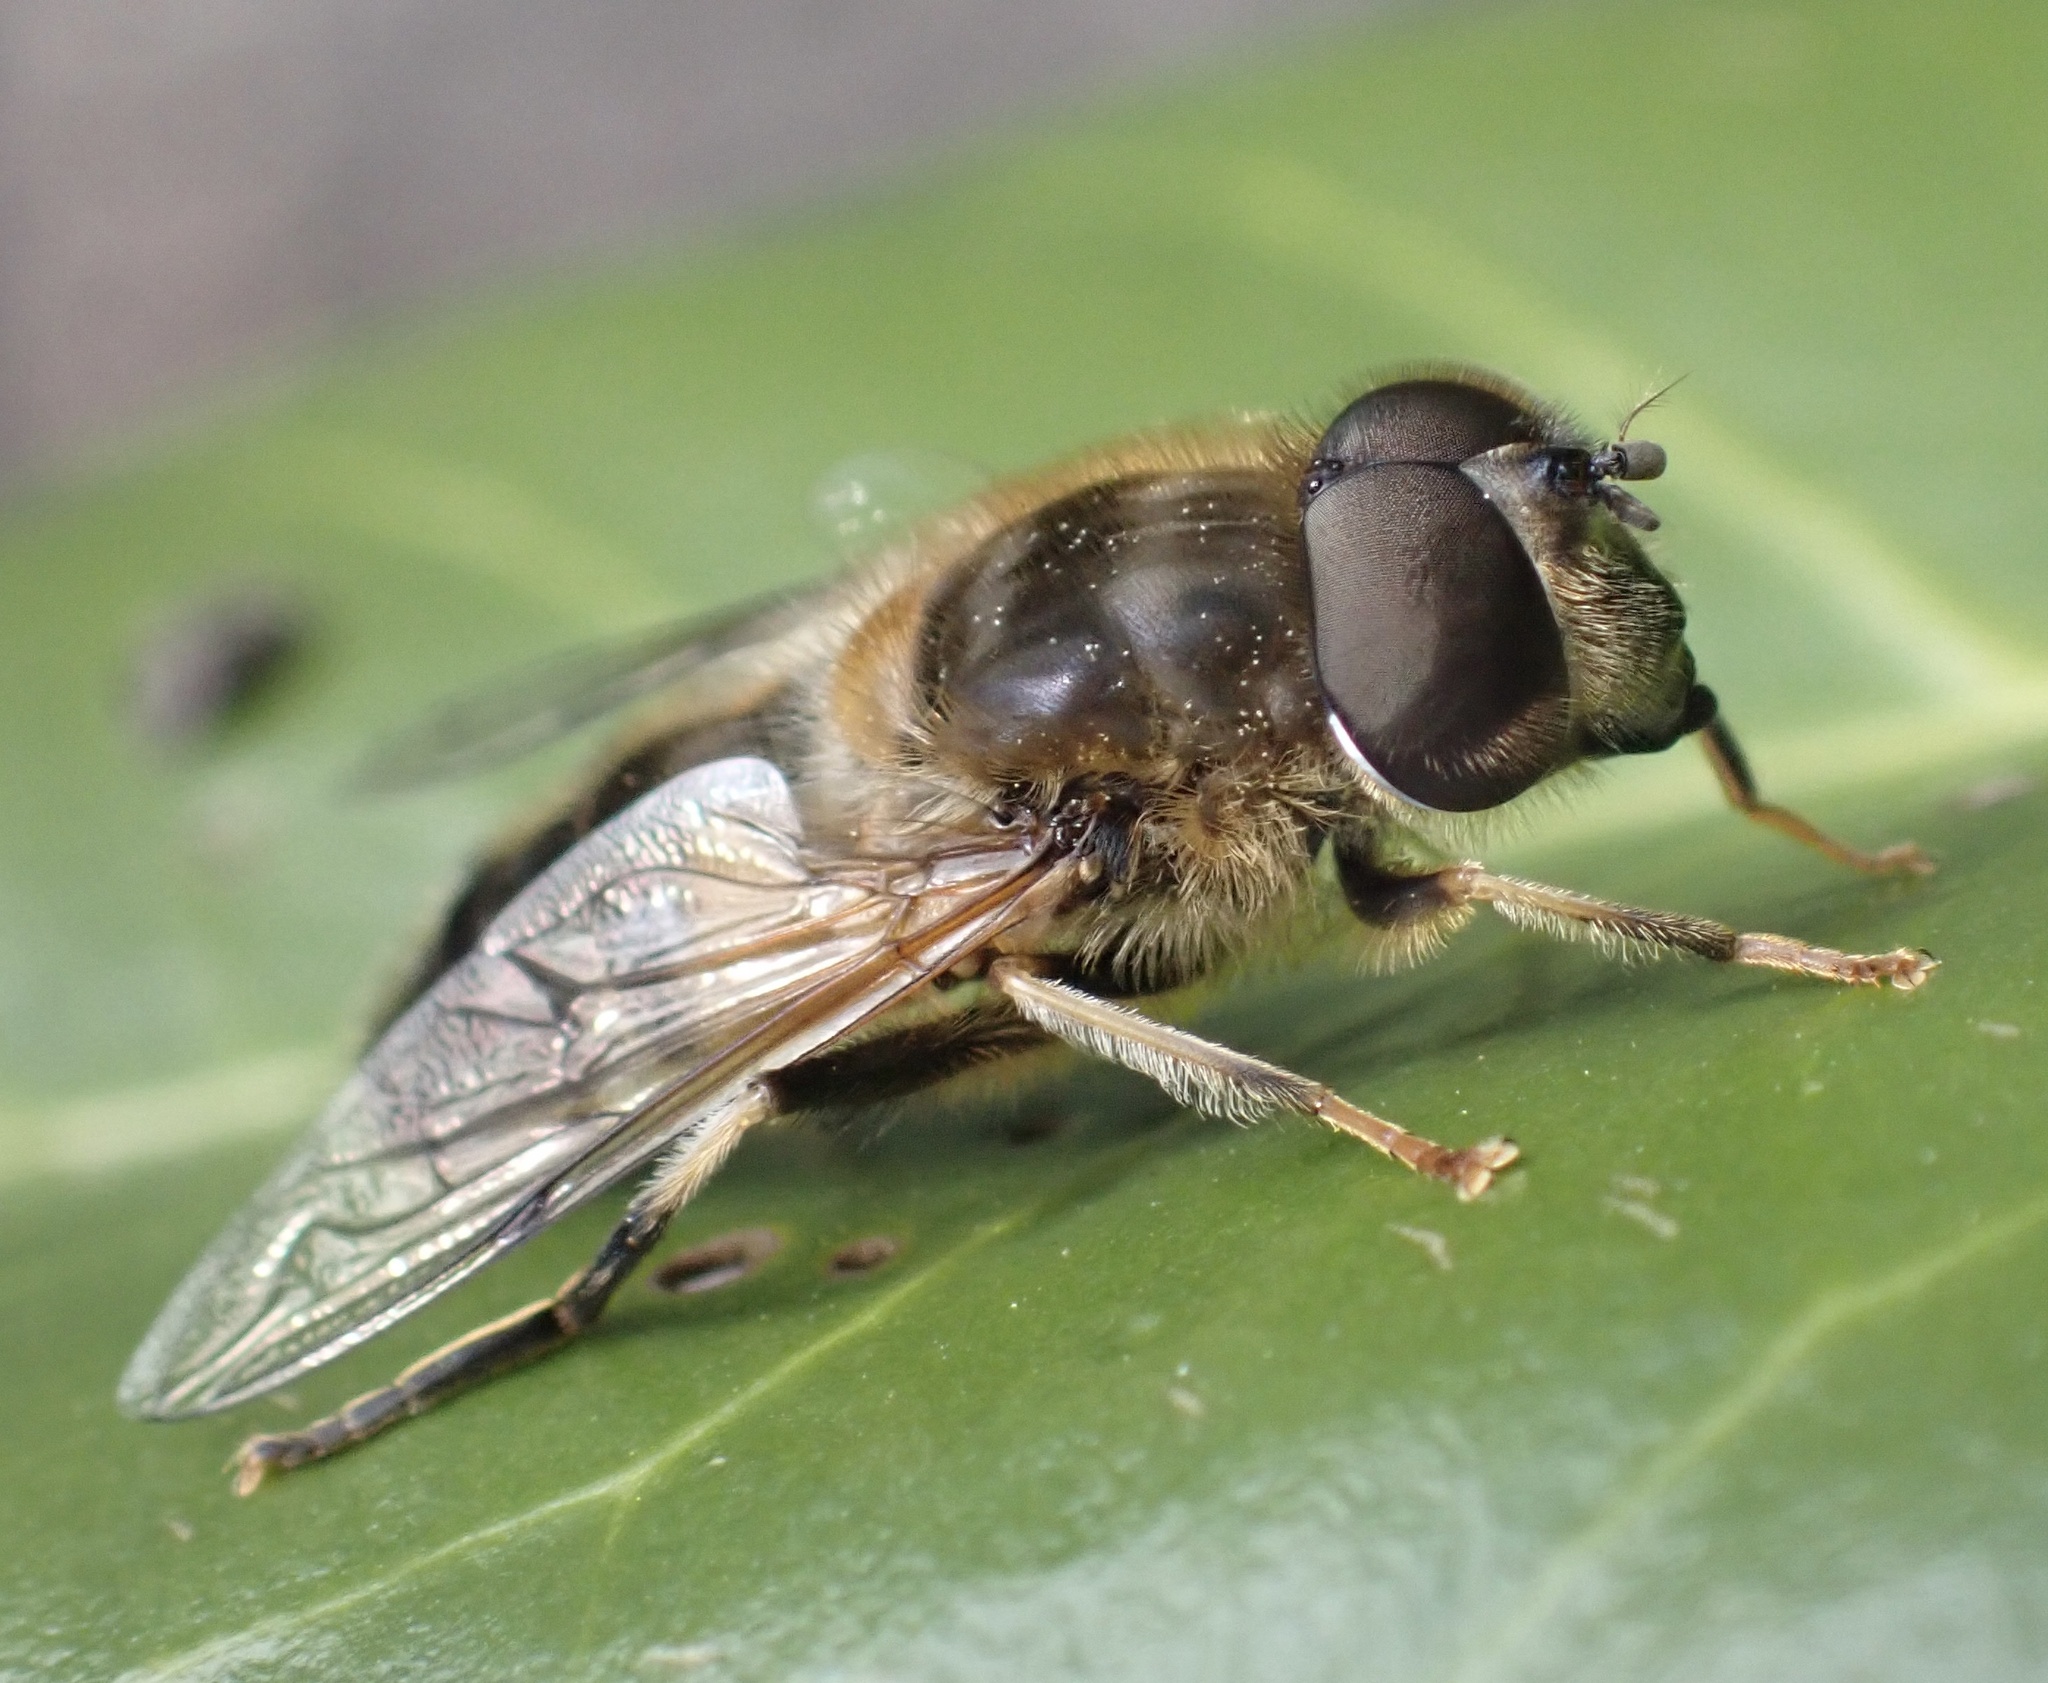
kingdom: Animalia
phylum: Arthropoda
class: Insecta
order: Diptera
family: Syrphidae
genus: Eristalis
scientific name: Eristalis pertinax
